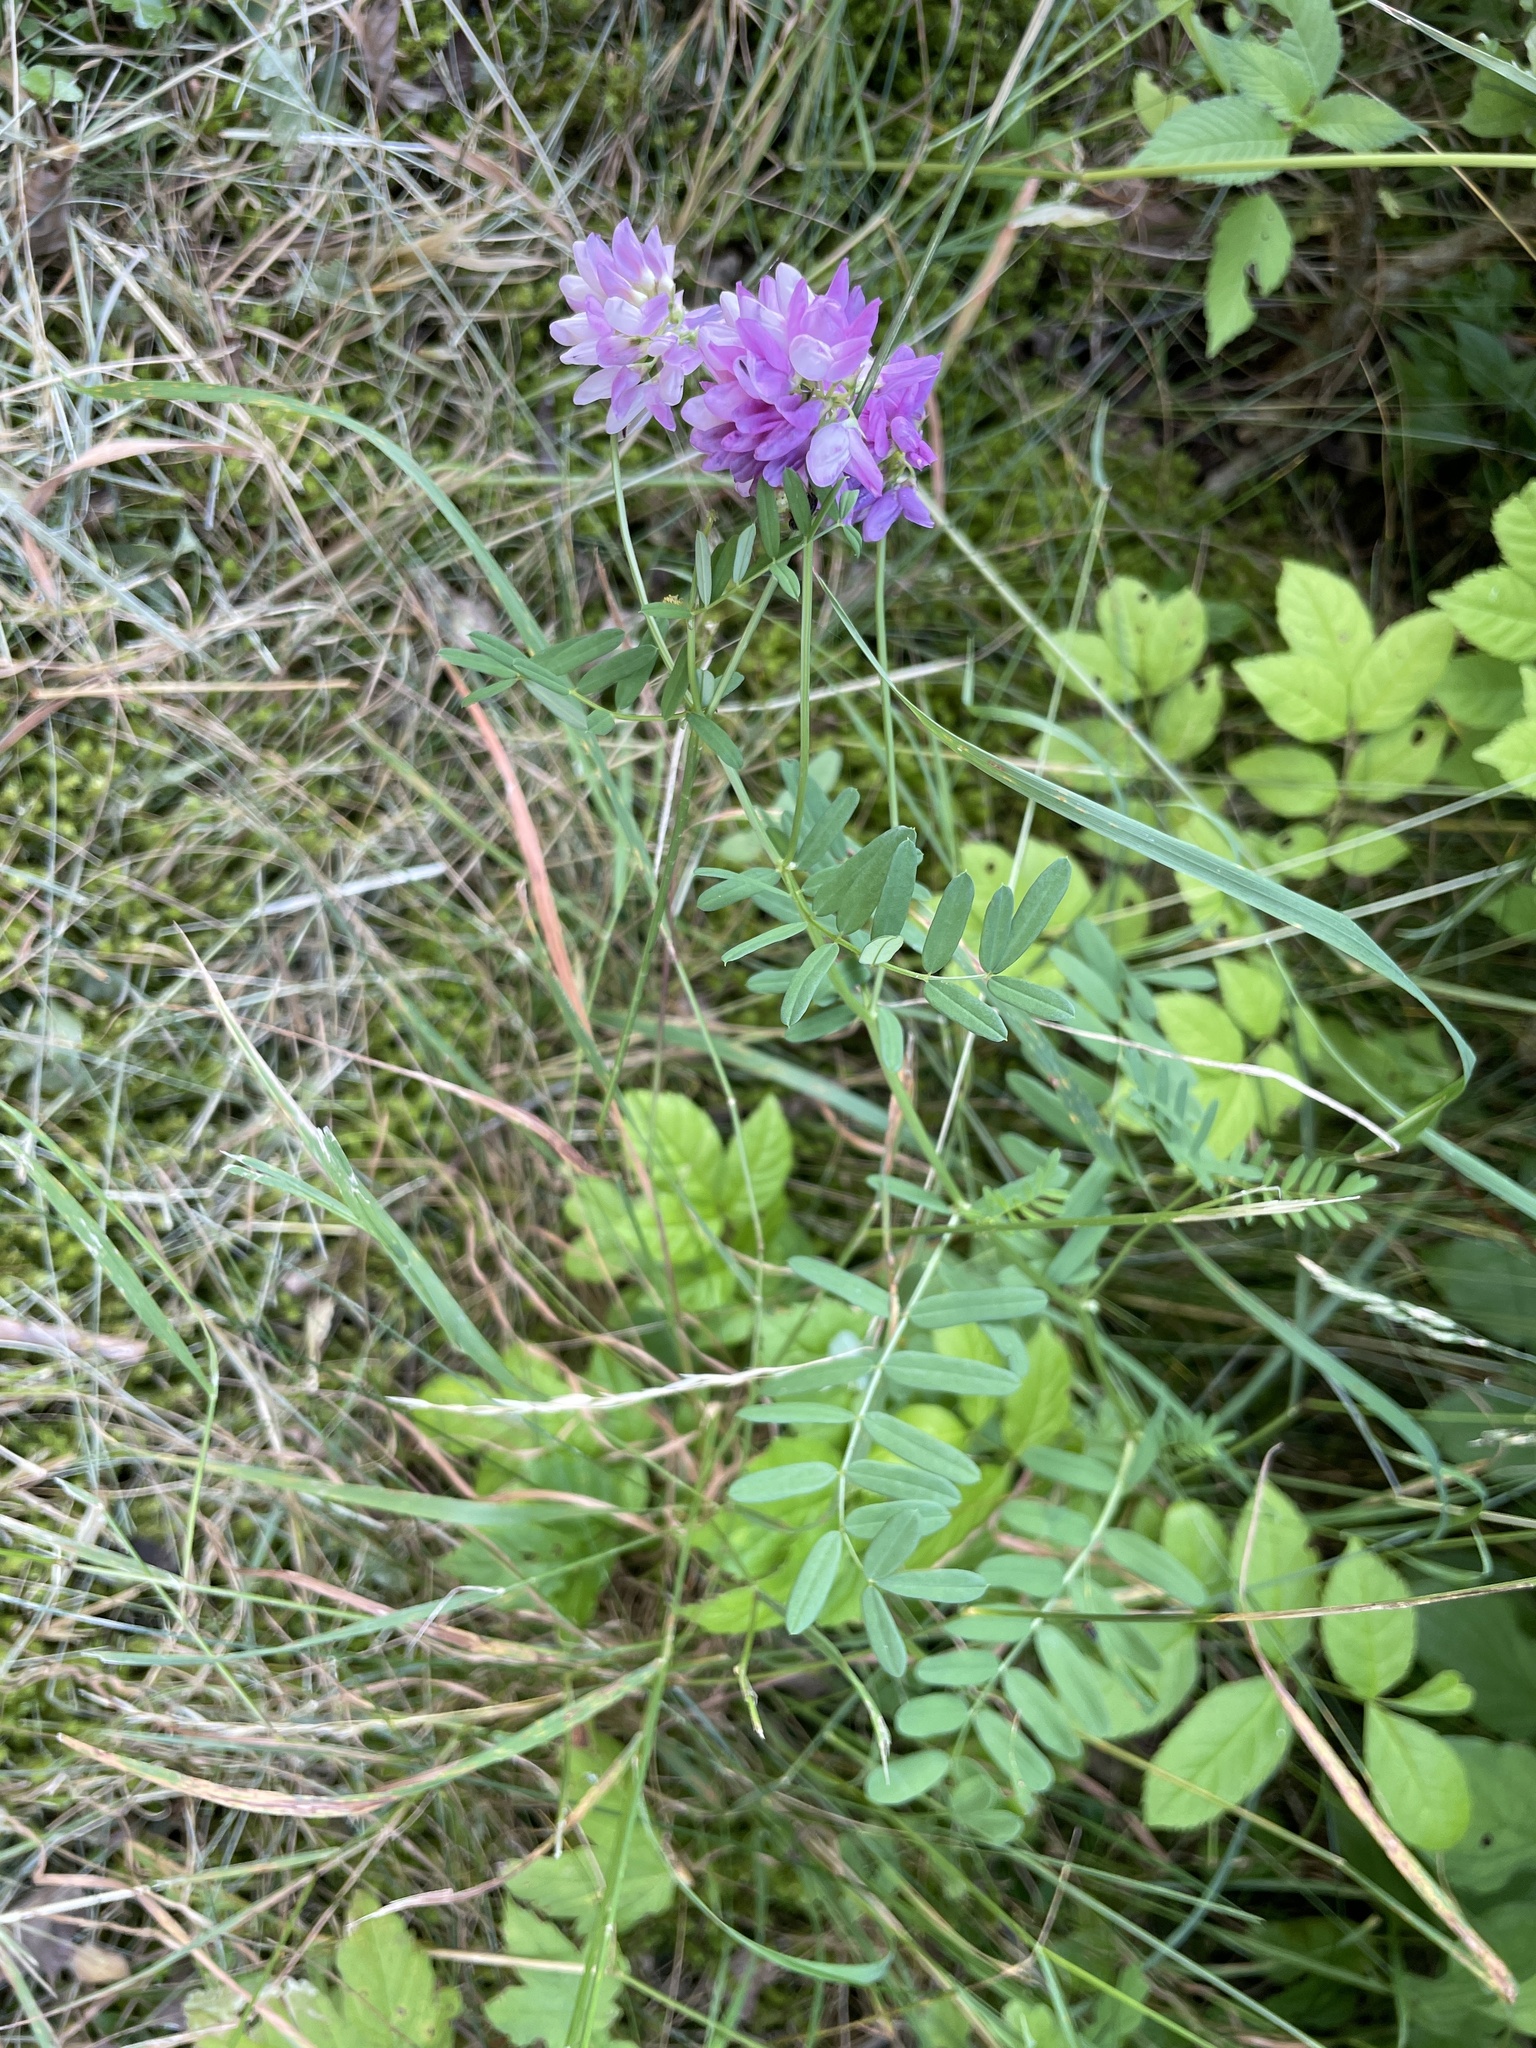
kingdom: Plantae
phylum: Tracheophyta
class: Magnoliopsida
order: Fabales
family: Fabaceae
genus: Coronilla
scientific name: Coronilla varia
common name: Crownvetch
